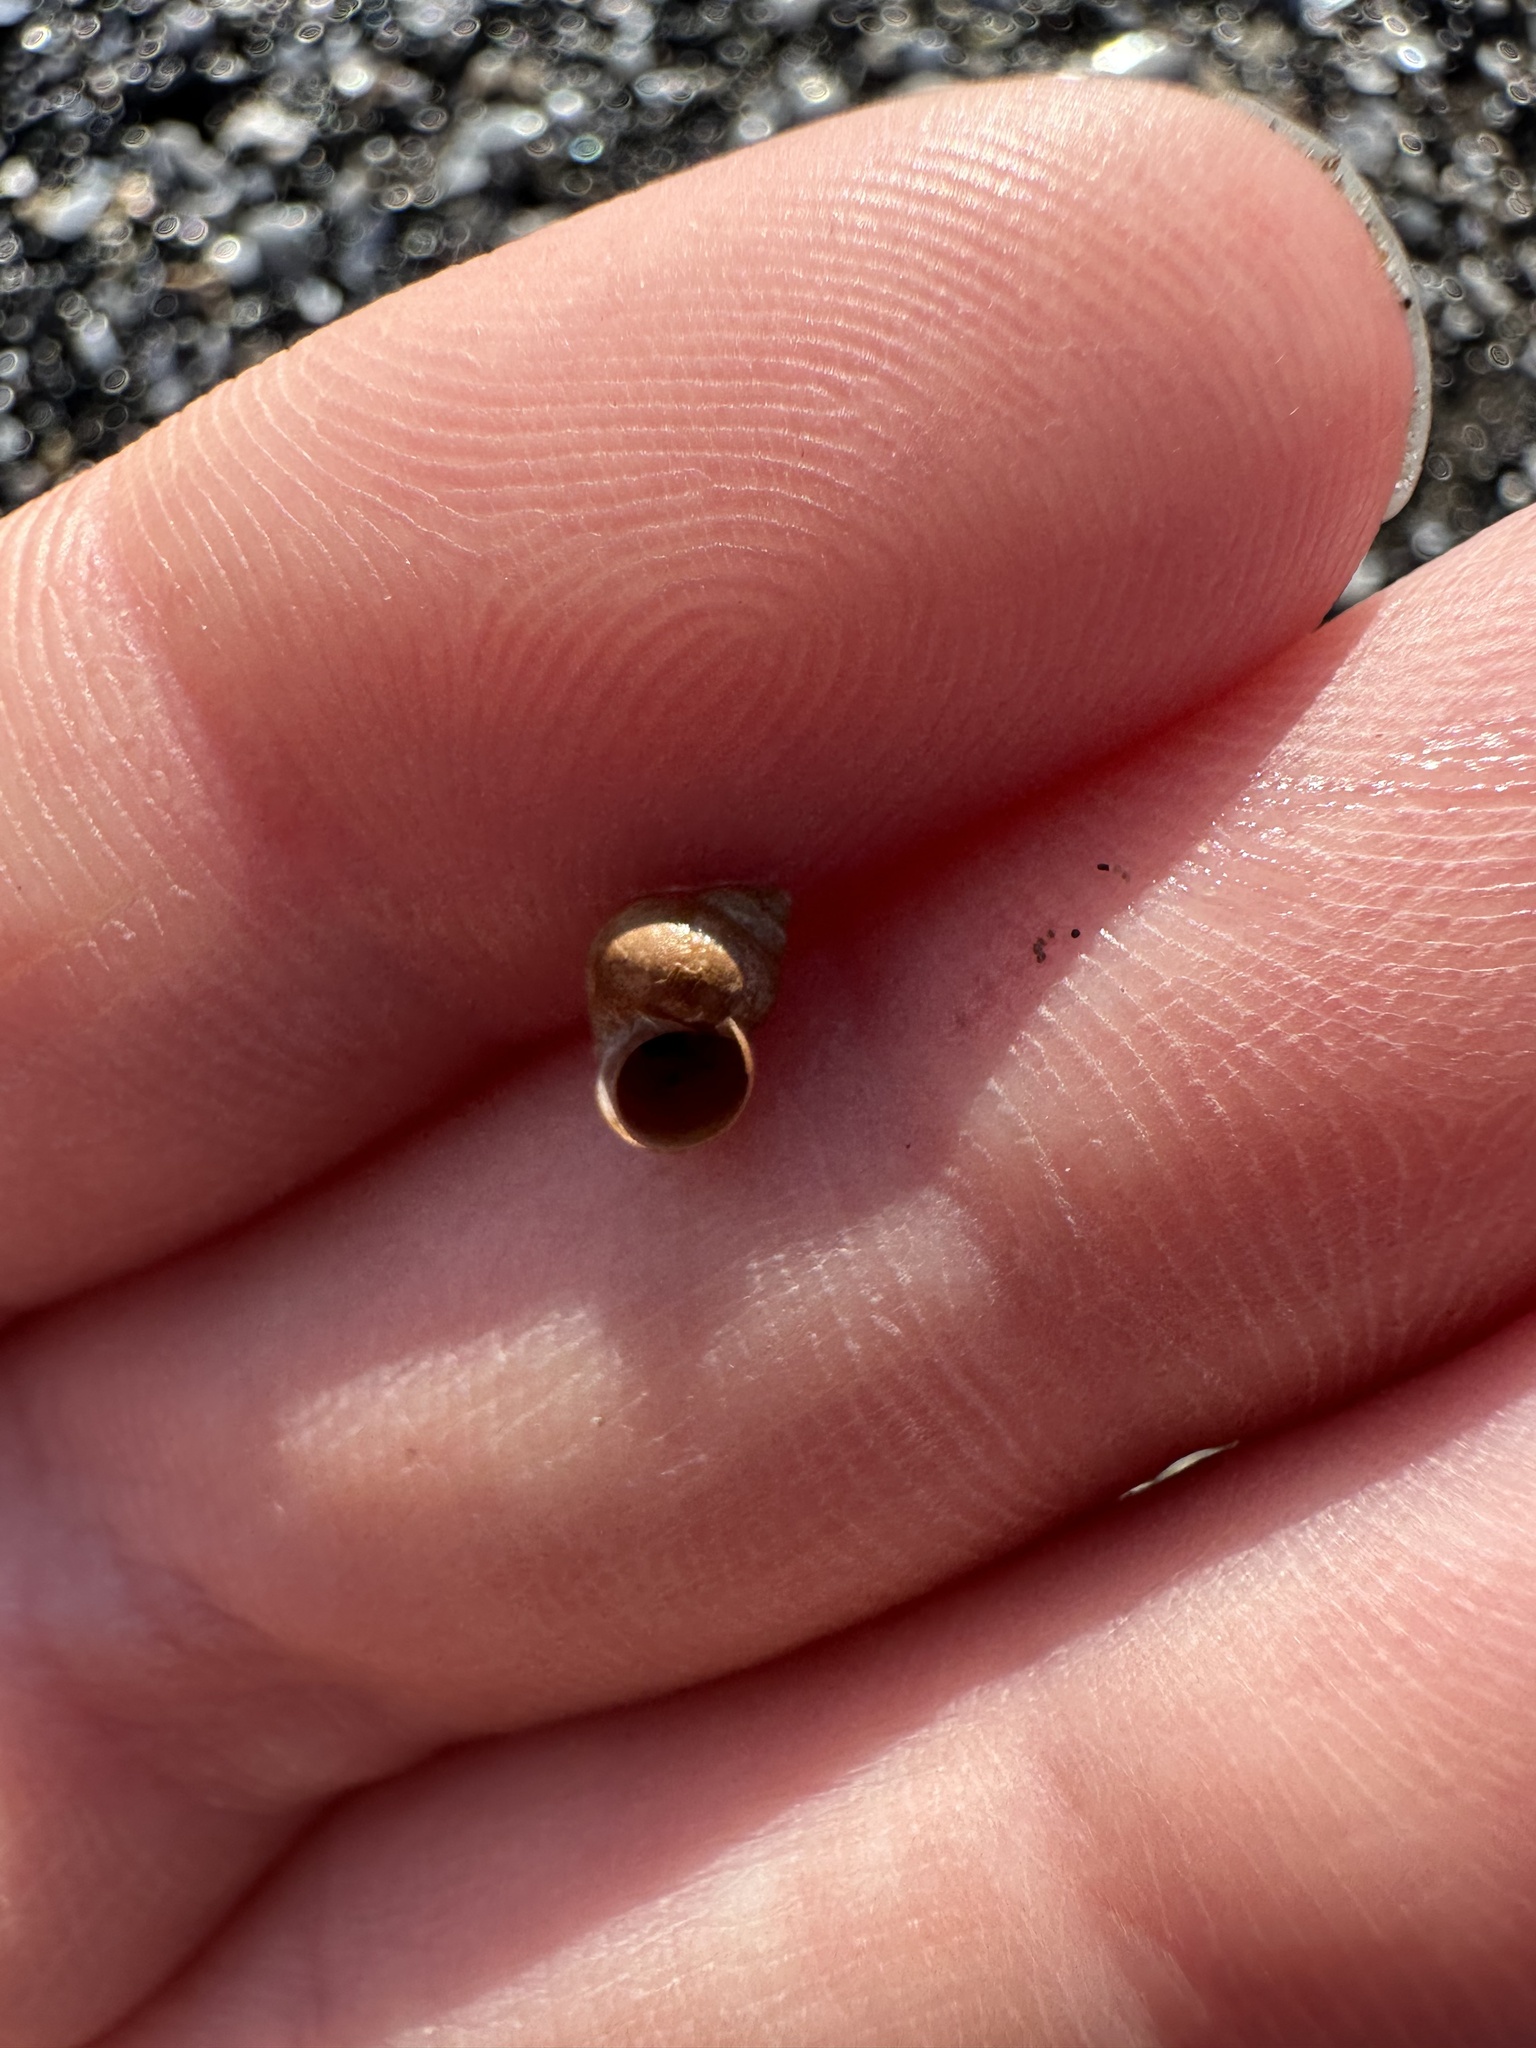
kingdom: Animalia
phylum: Mollusca
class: Gastropoda
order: Littorinimorpha
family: Littorinidae
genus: Littorina
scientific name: Littorina saxatilis
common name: Black-lined periwinkle
